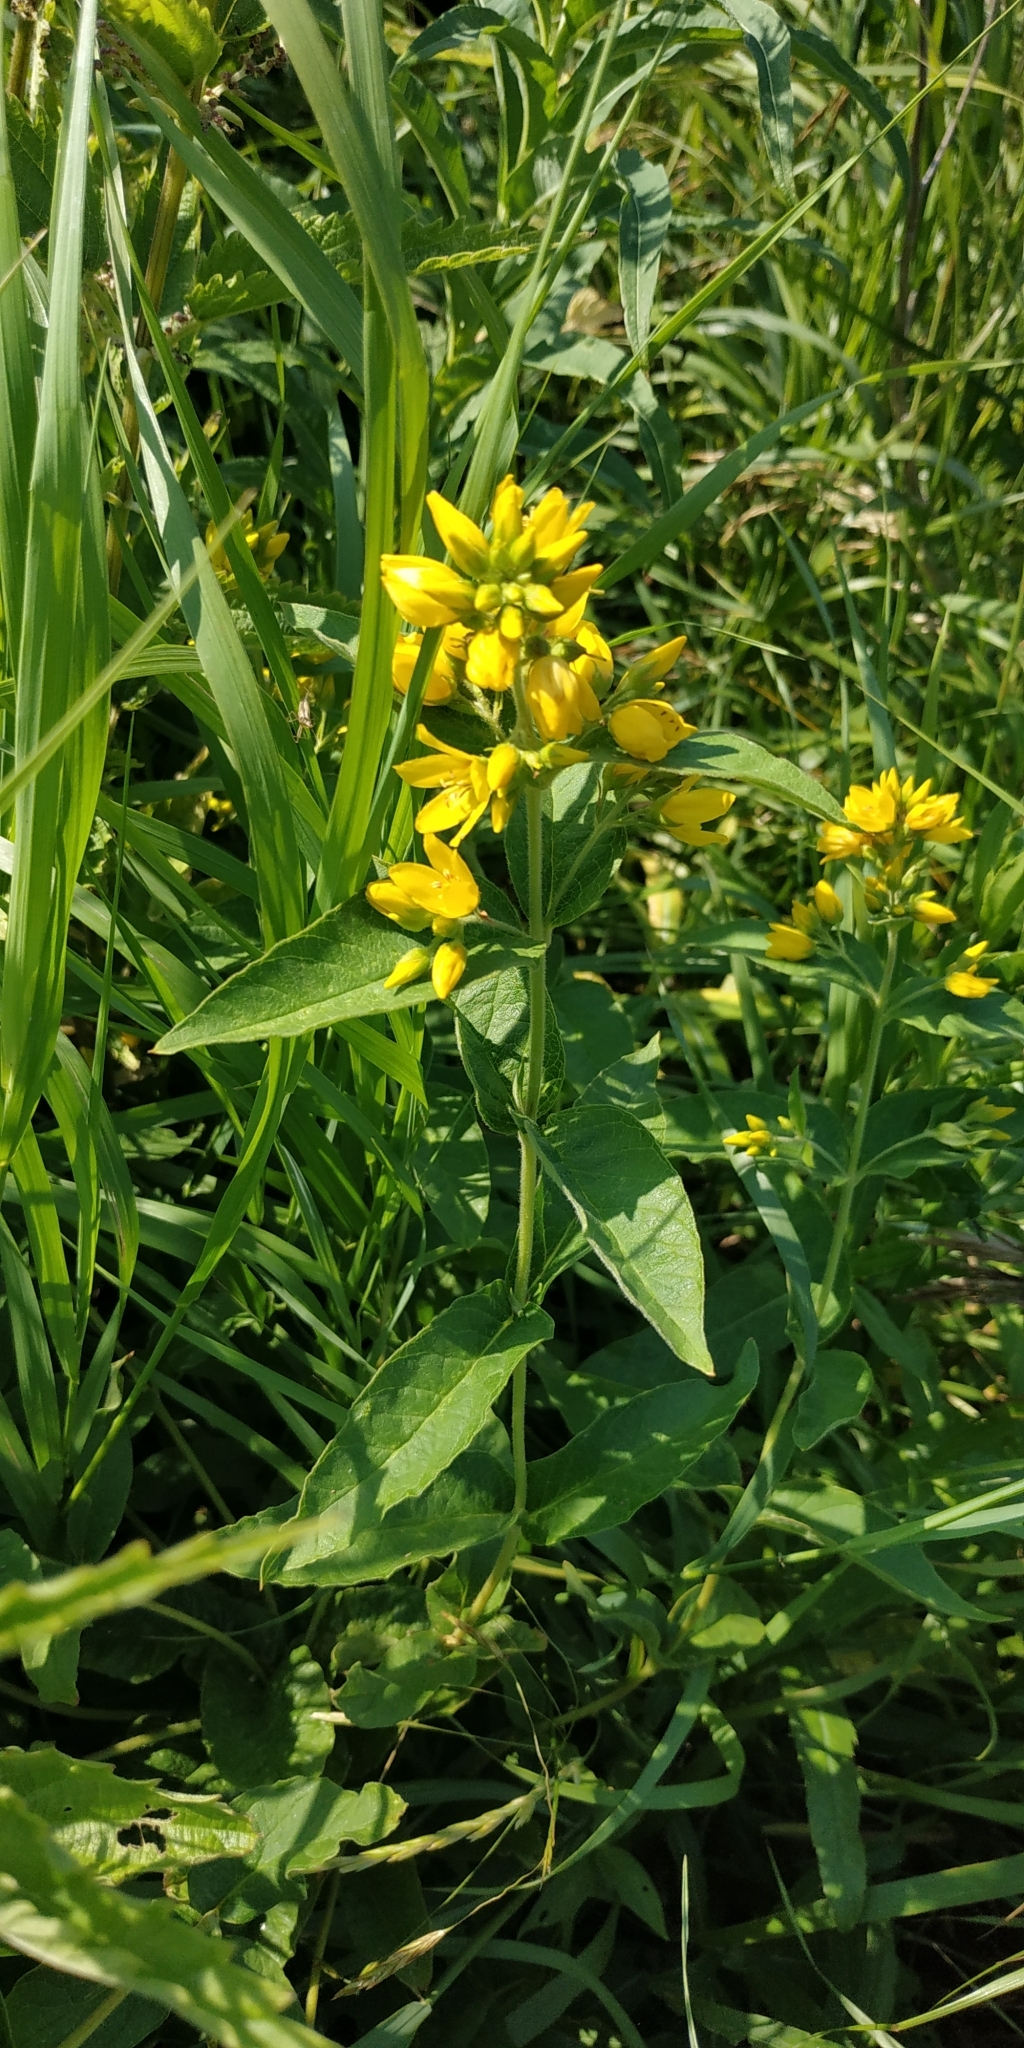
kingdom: Plantae
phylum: Tracheophyta
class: Magnoliopsida
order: Ericales
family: Primulaceae
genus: Lysimachia
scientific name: Lysimachia vulgaris
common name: Yellow loosestrife
